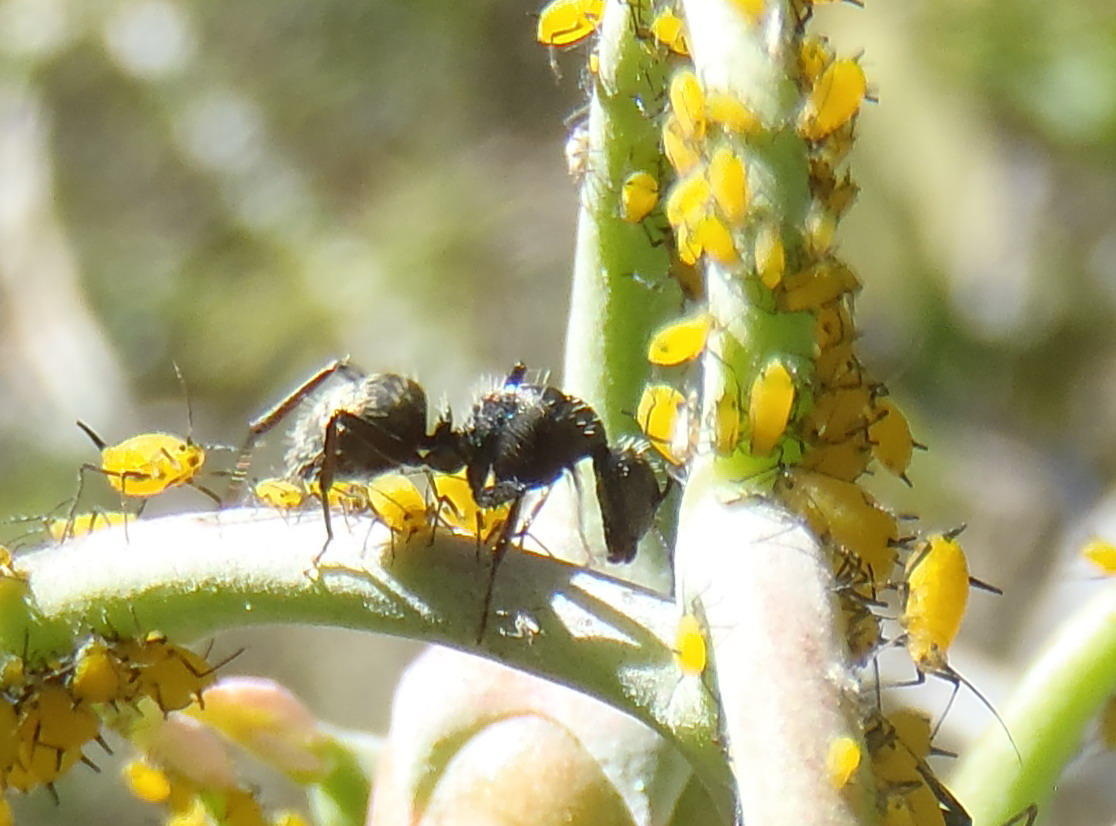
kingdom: Animalia
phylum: Arthropoda
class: Insecta
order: Hymenoptera
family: Formicidae
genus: Camponotus
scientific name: Camponotus niveosetosus
